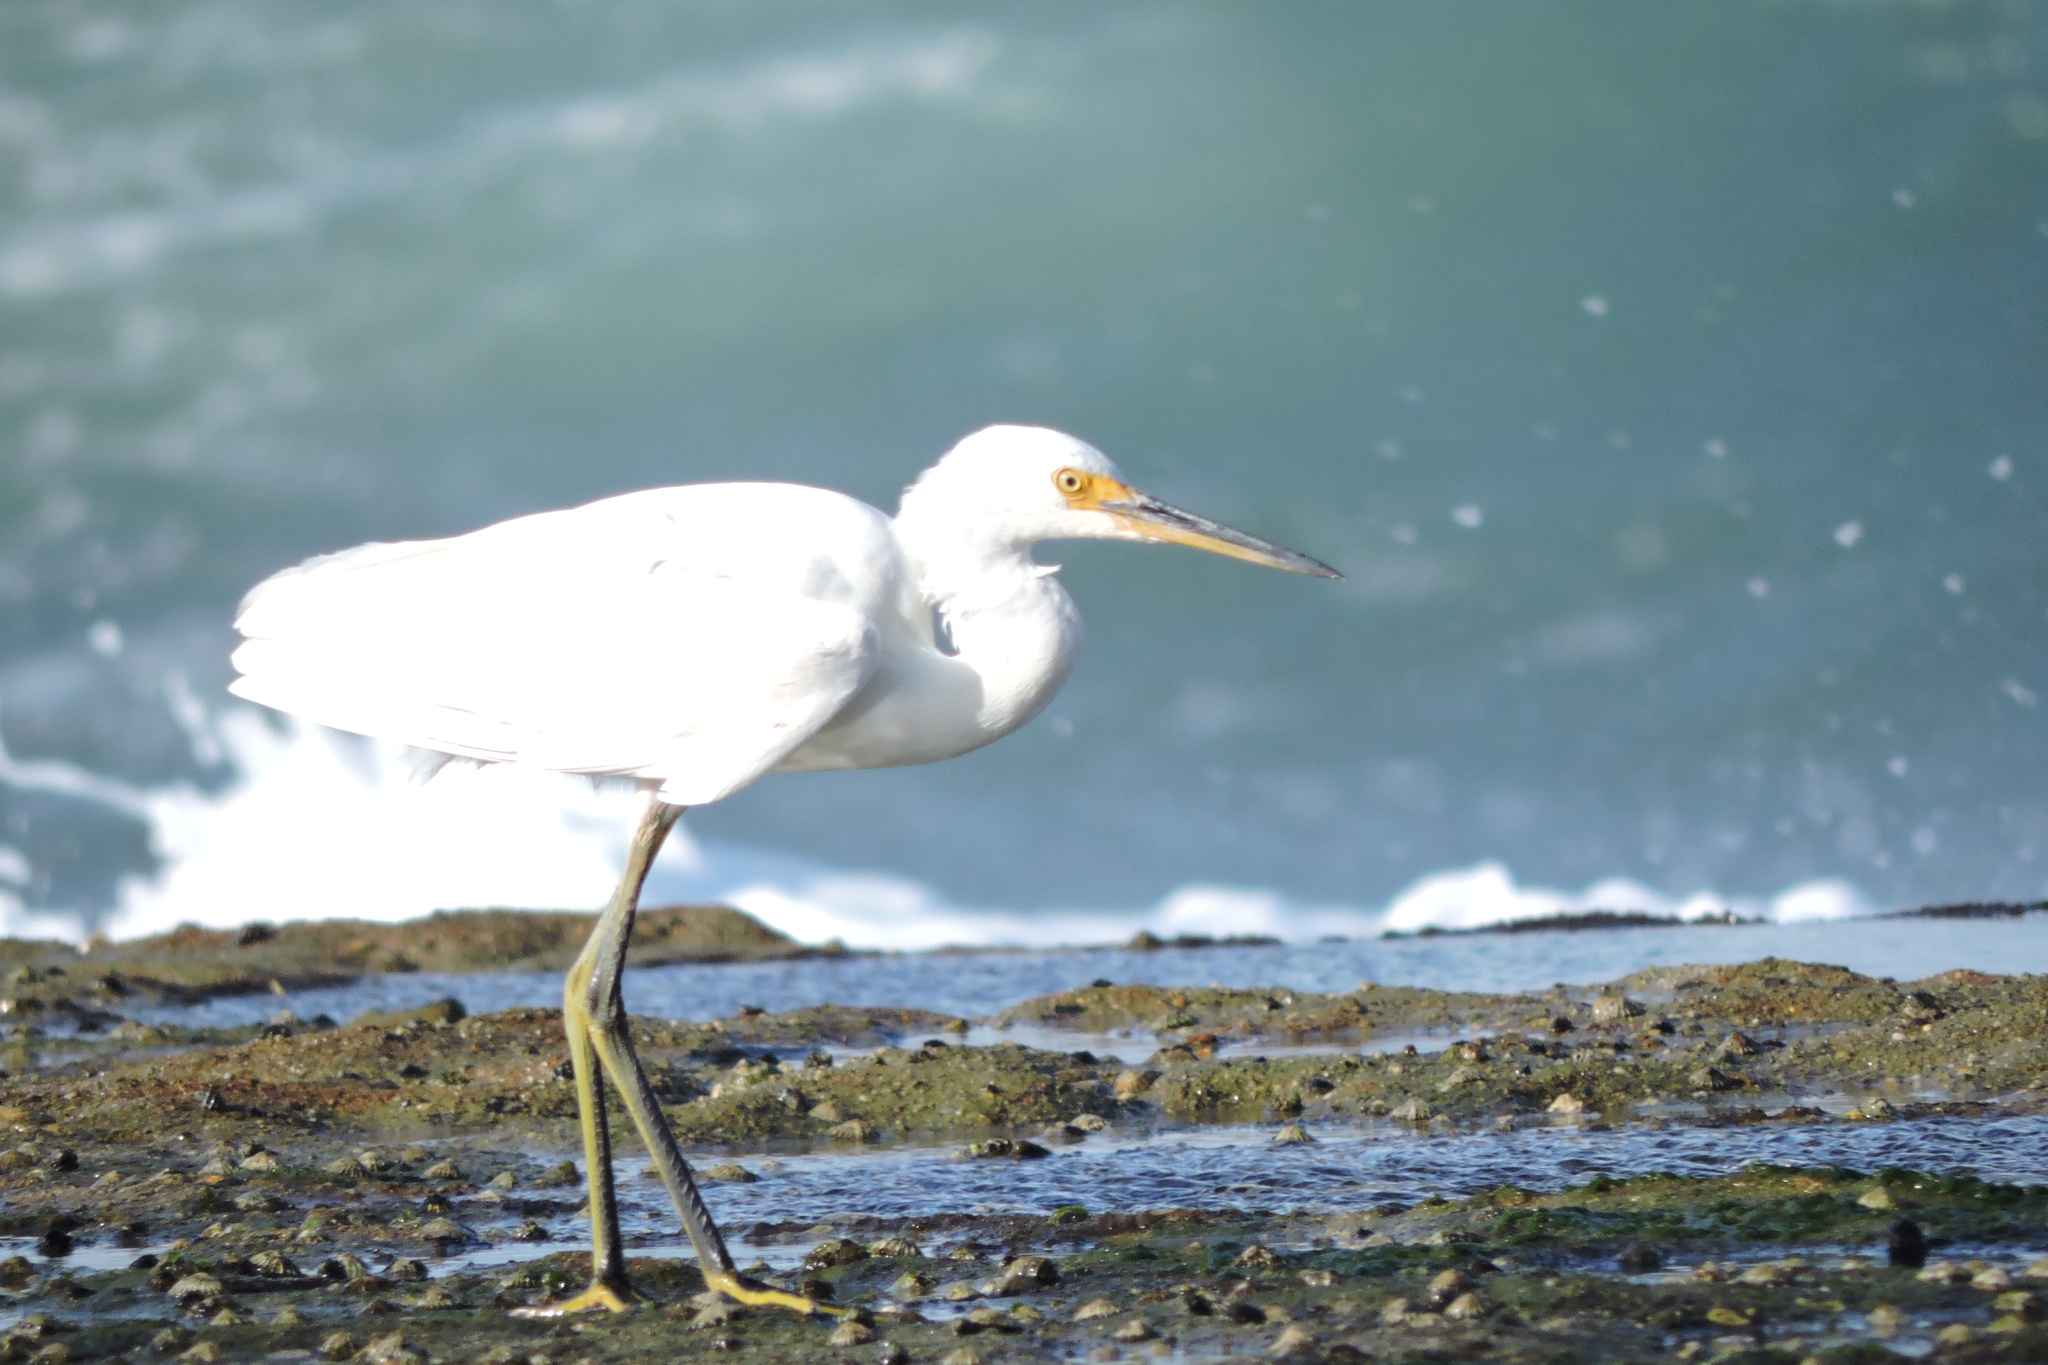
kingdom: Animalia
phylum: Chordata
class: Aves
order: Pelecaniformes
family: Ardeidae
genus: Egretta
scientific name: Egretta garzetta
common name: Little egret
